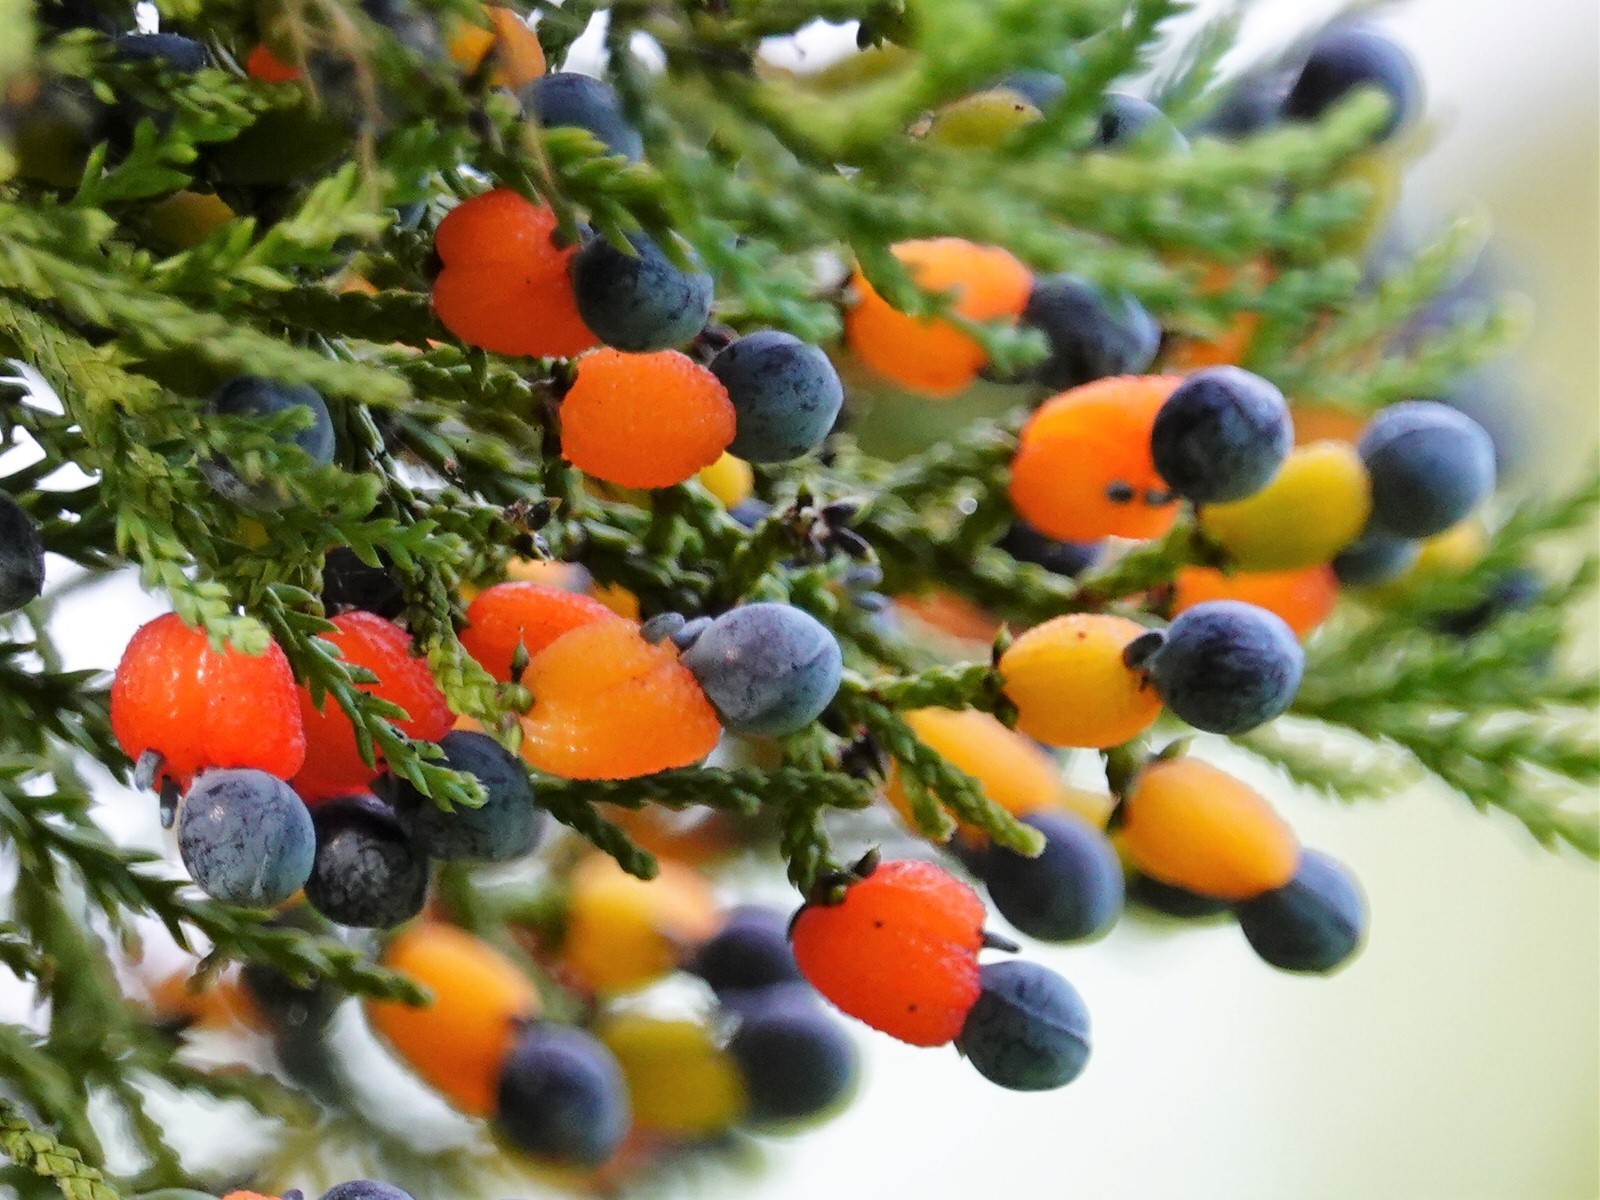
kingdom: Plantae
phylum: Tracheophyta
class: Pinopsida
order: Pinales
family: Podocarpaceae
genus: Dacrycarpus
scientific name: Dacrycarpus dacrydioides
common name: White pine
